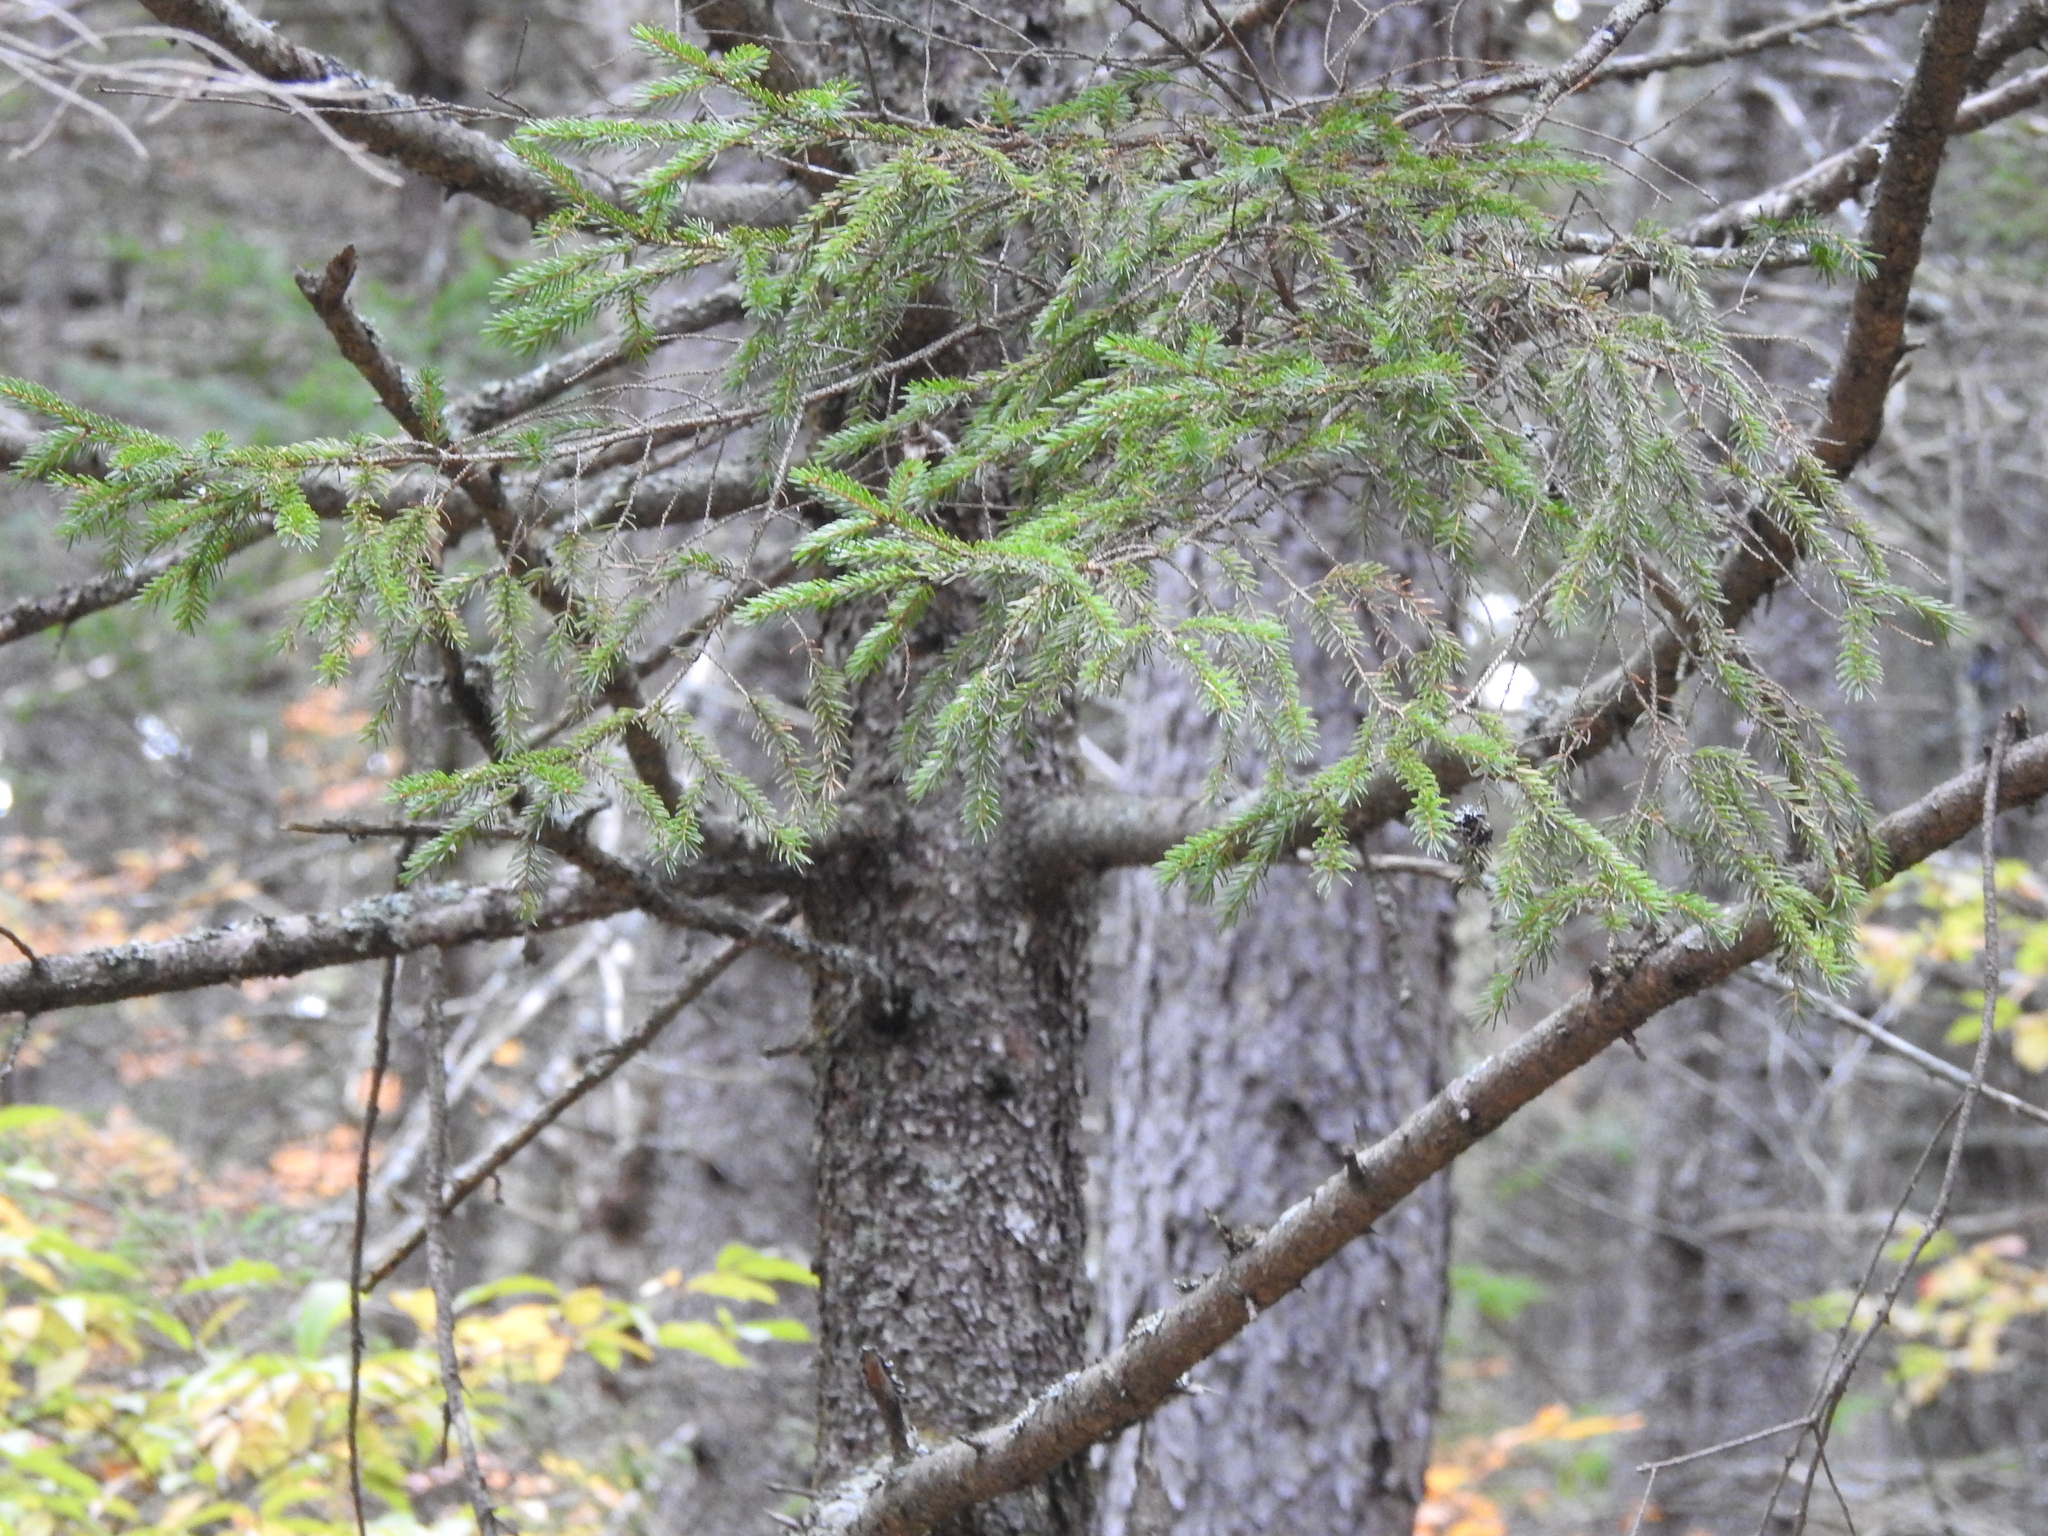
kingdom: Plantae
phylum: Tracheophyta
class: Pinopsida
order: Pinales
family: Pinaceae
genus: Picea
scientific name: Picea rubens
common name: Red spruce
